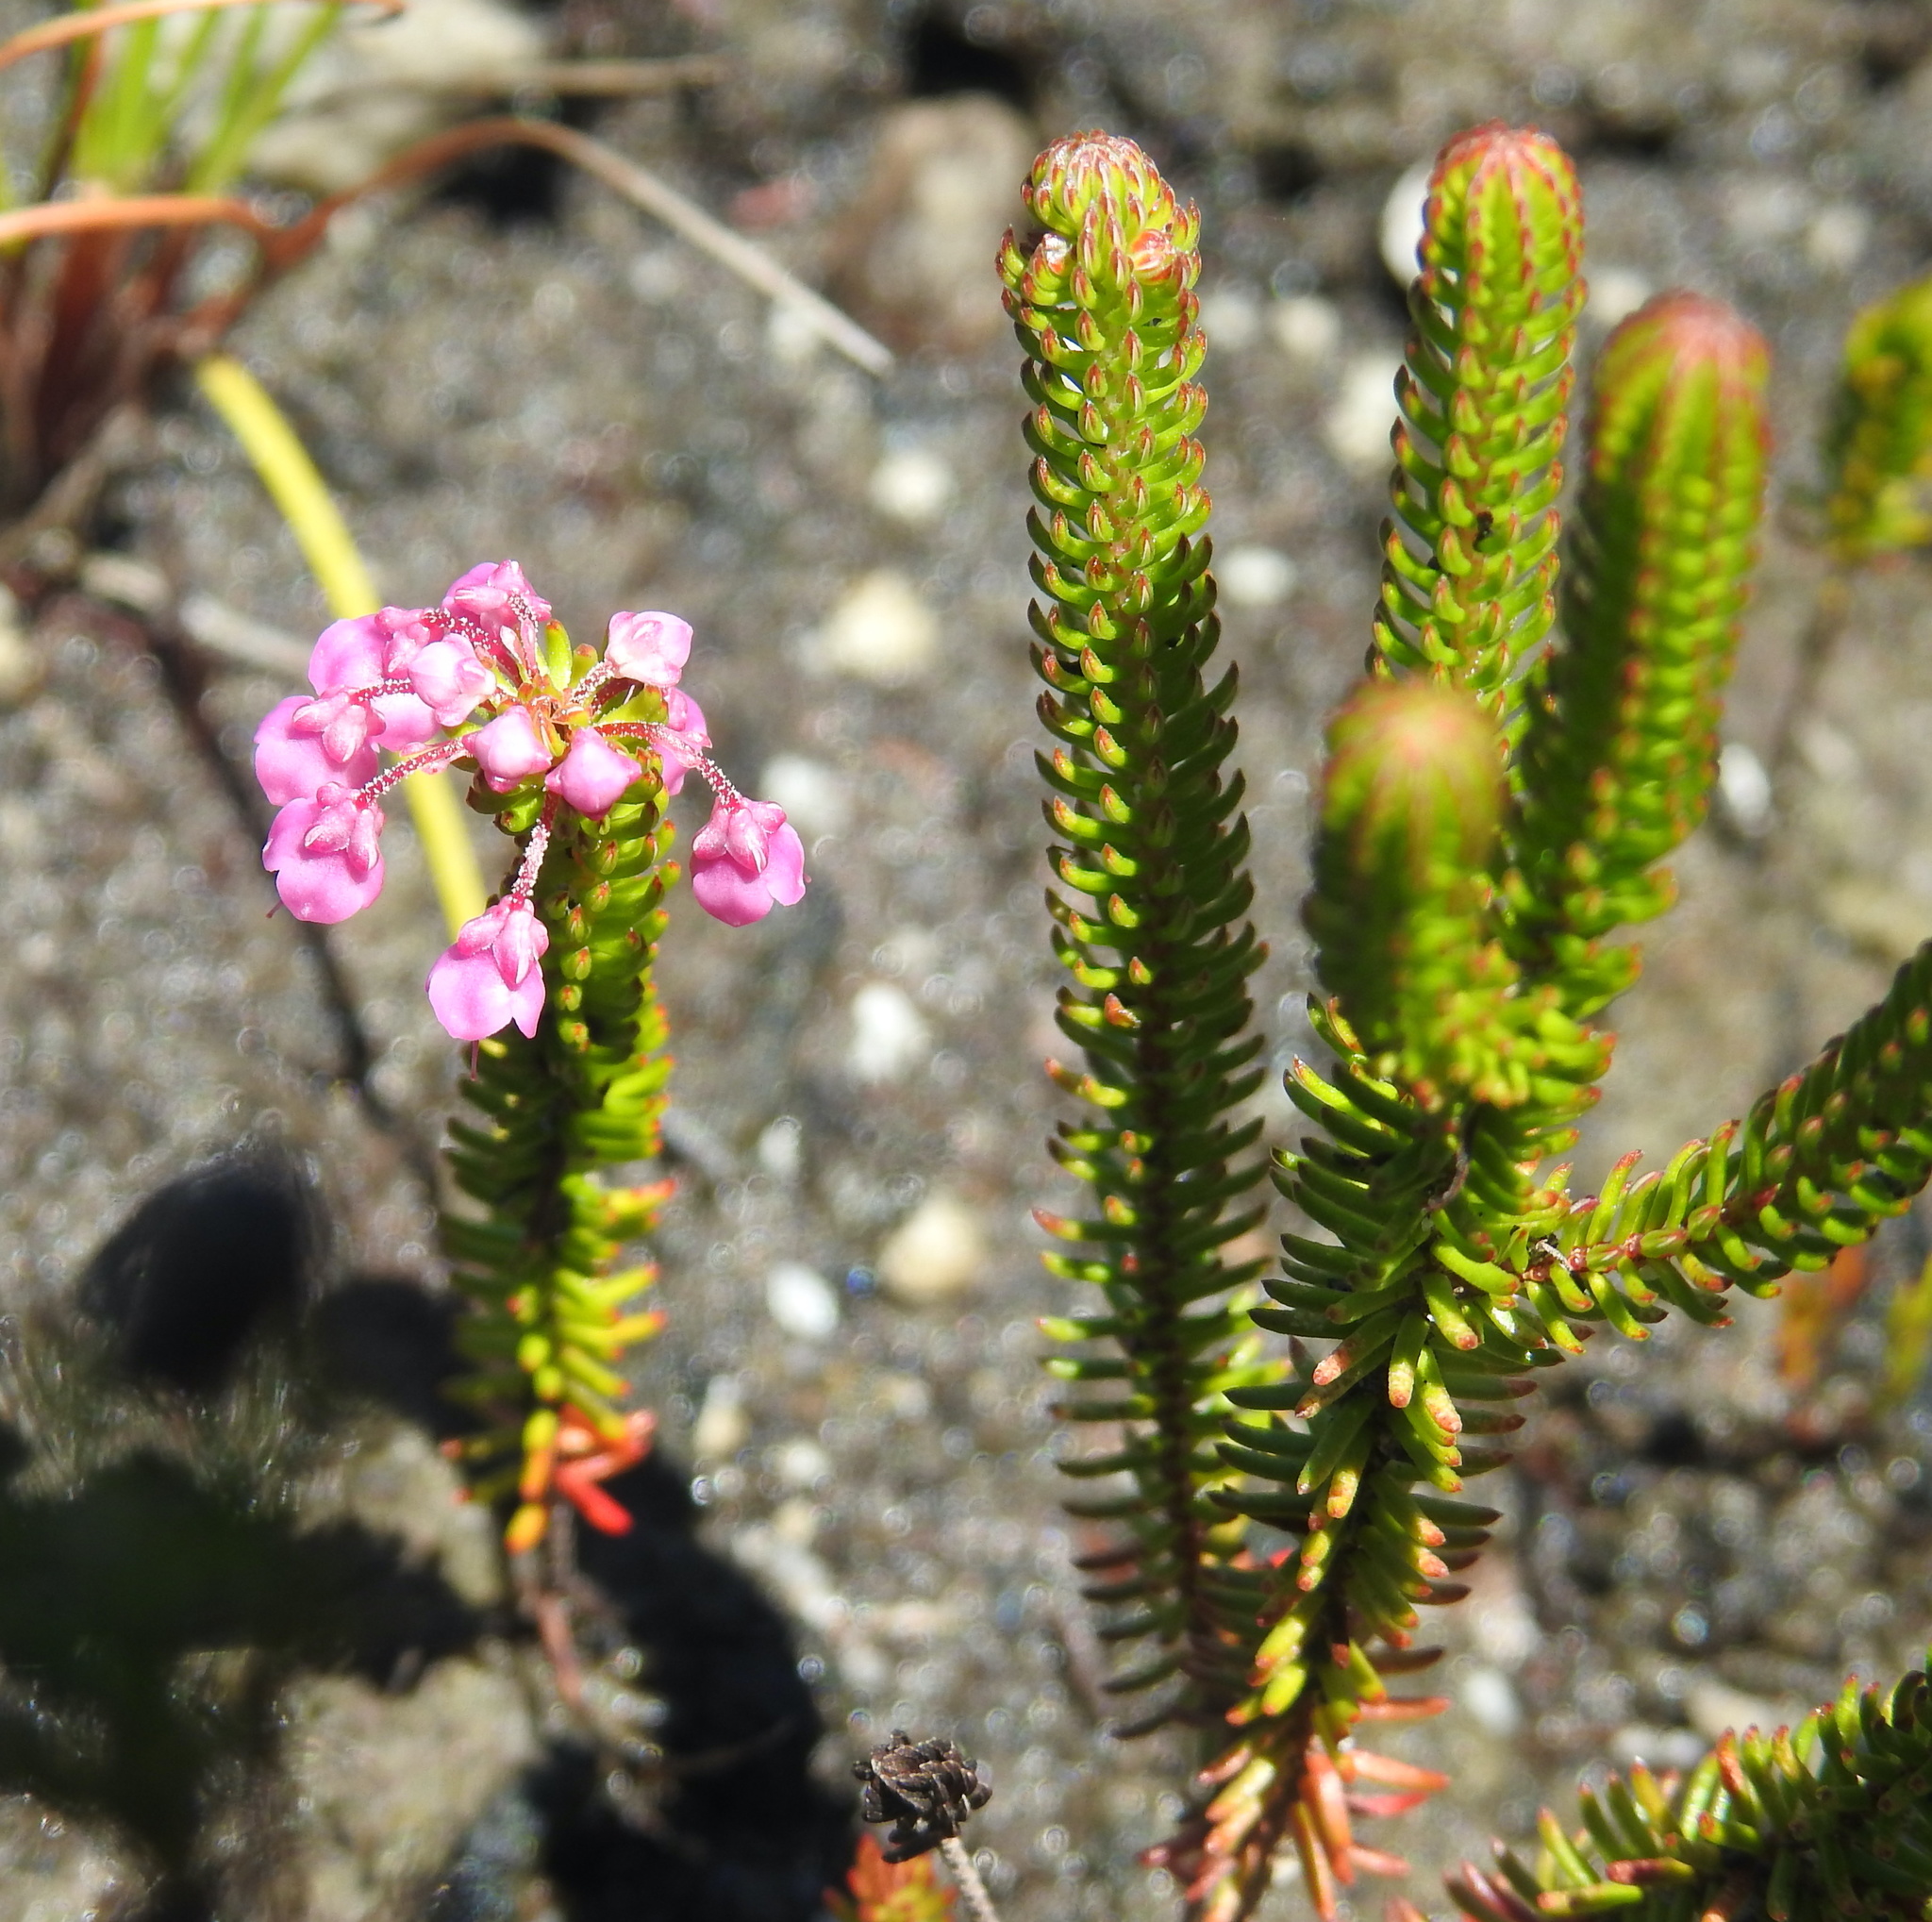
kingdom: Plantae
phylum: Tracheophyta
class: Magnoliopsida
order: Ericales
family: Ericaceae
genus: Erica
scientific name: Erica seriphiifolia
